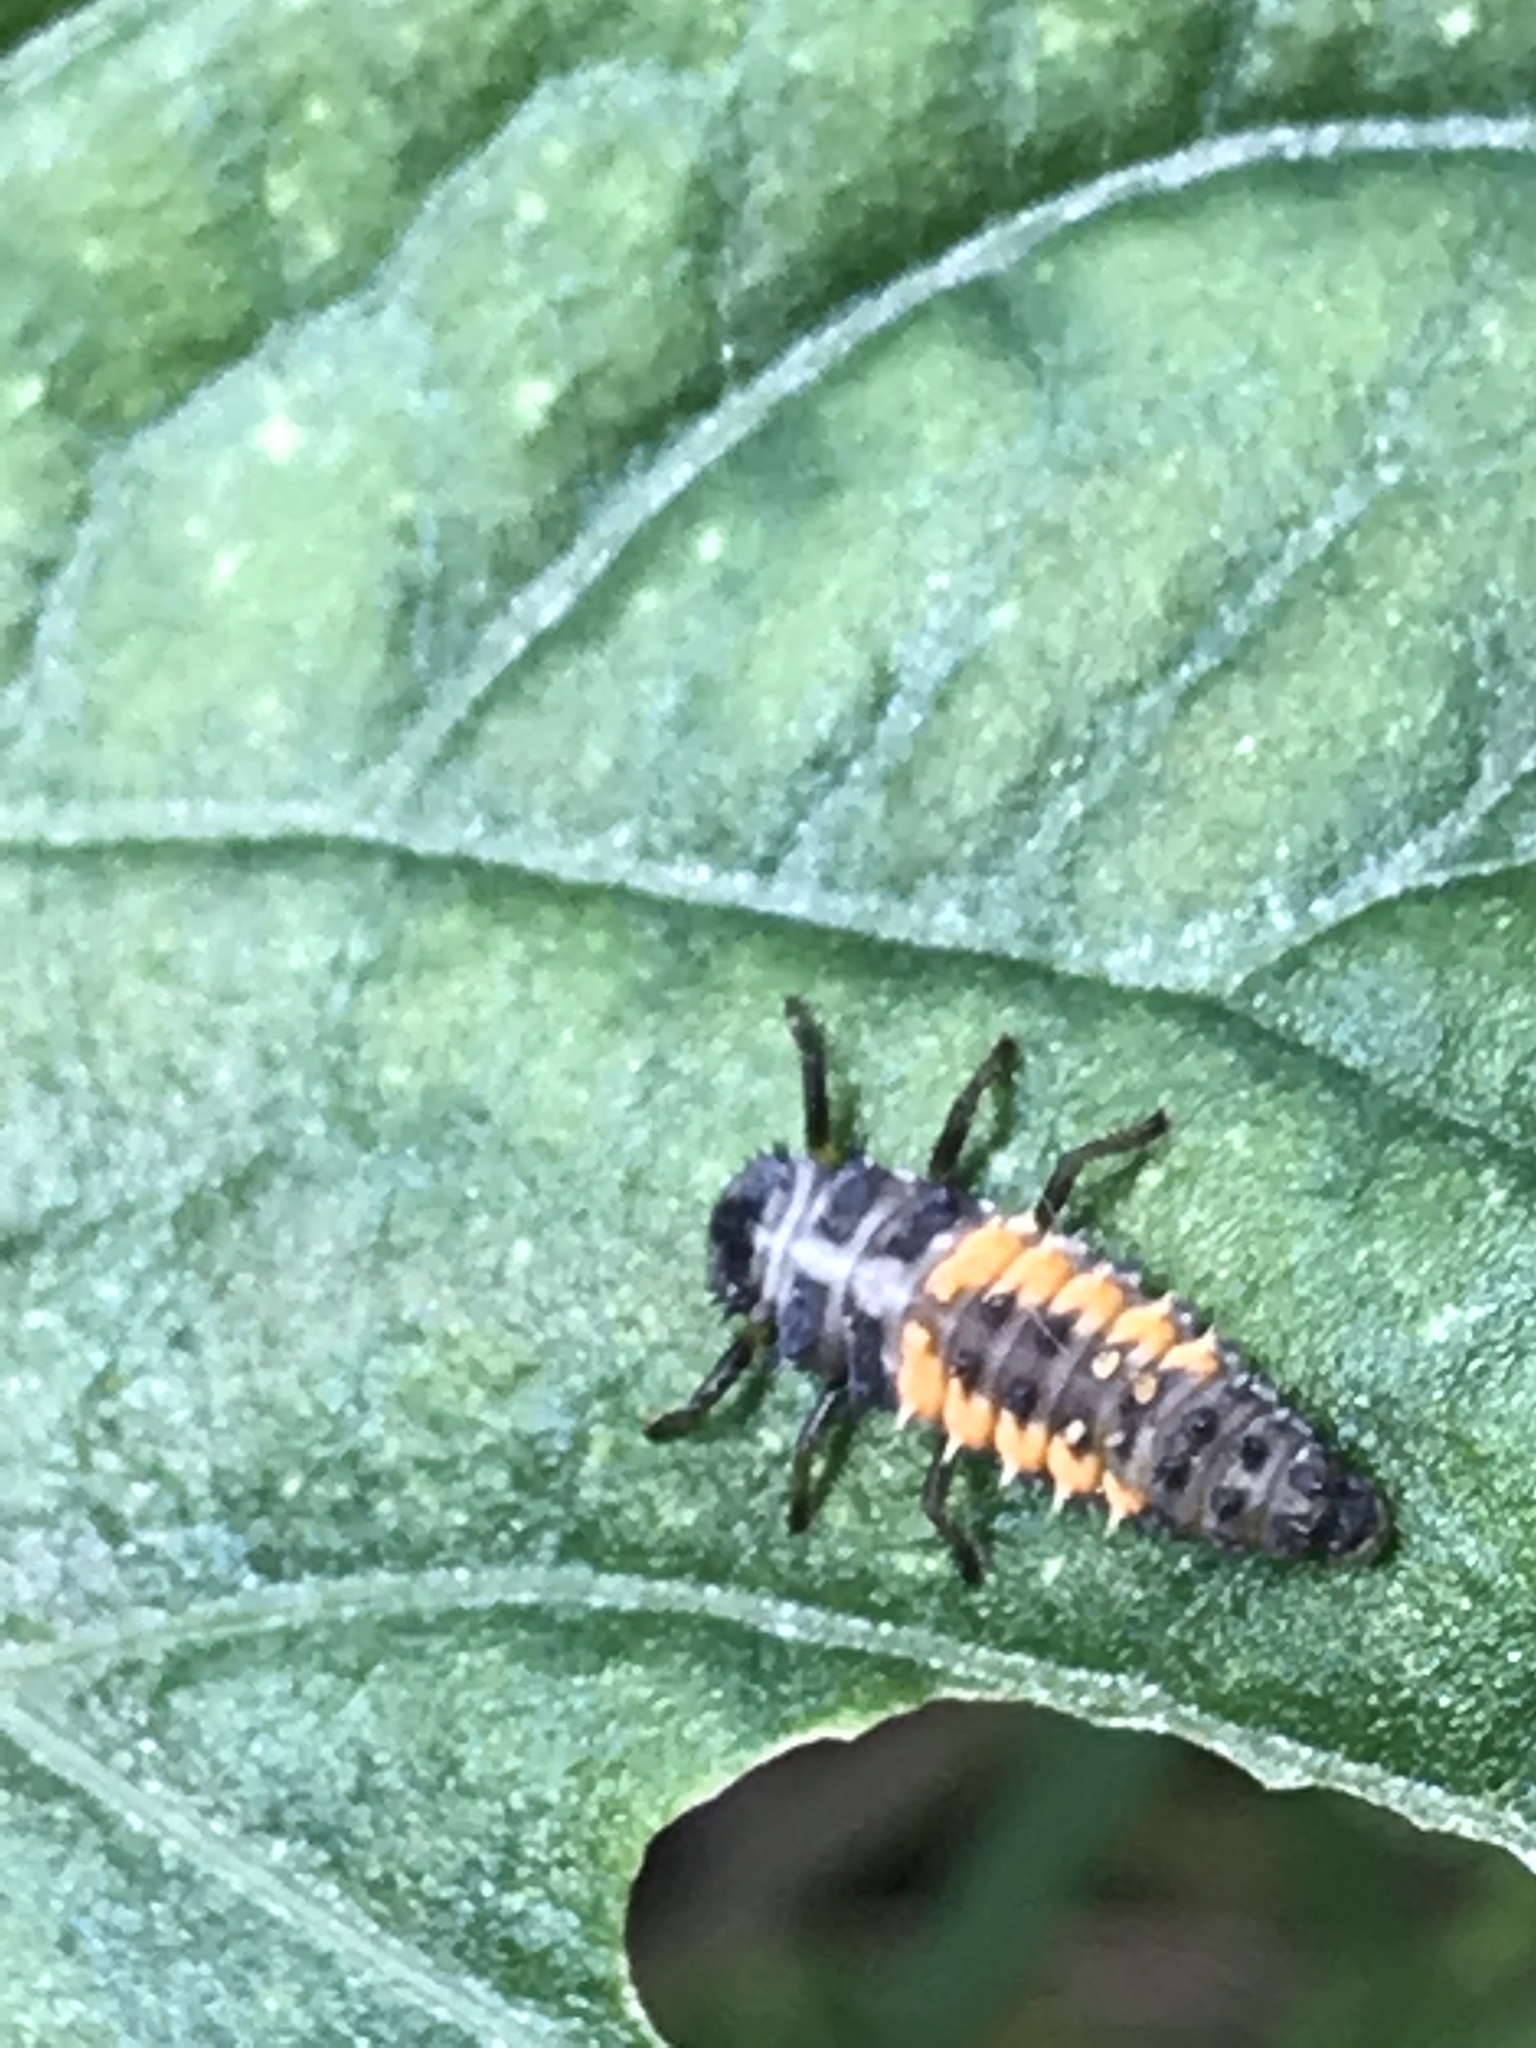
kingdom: Animalia
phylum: Arthropoda
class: Insecta
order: Coleoptera
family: Coccinellidae
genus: Harmonia
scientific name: Harmonia axyridis
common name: Harlequin ladybird
